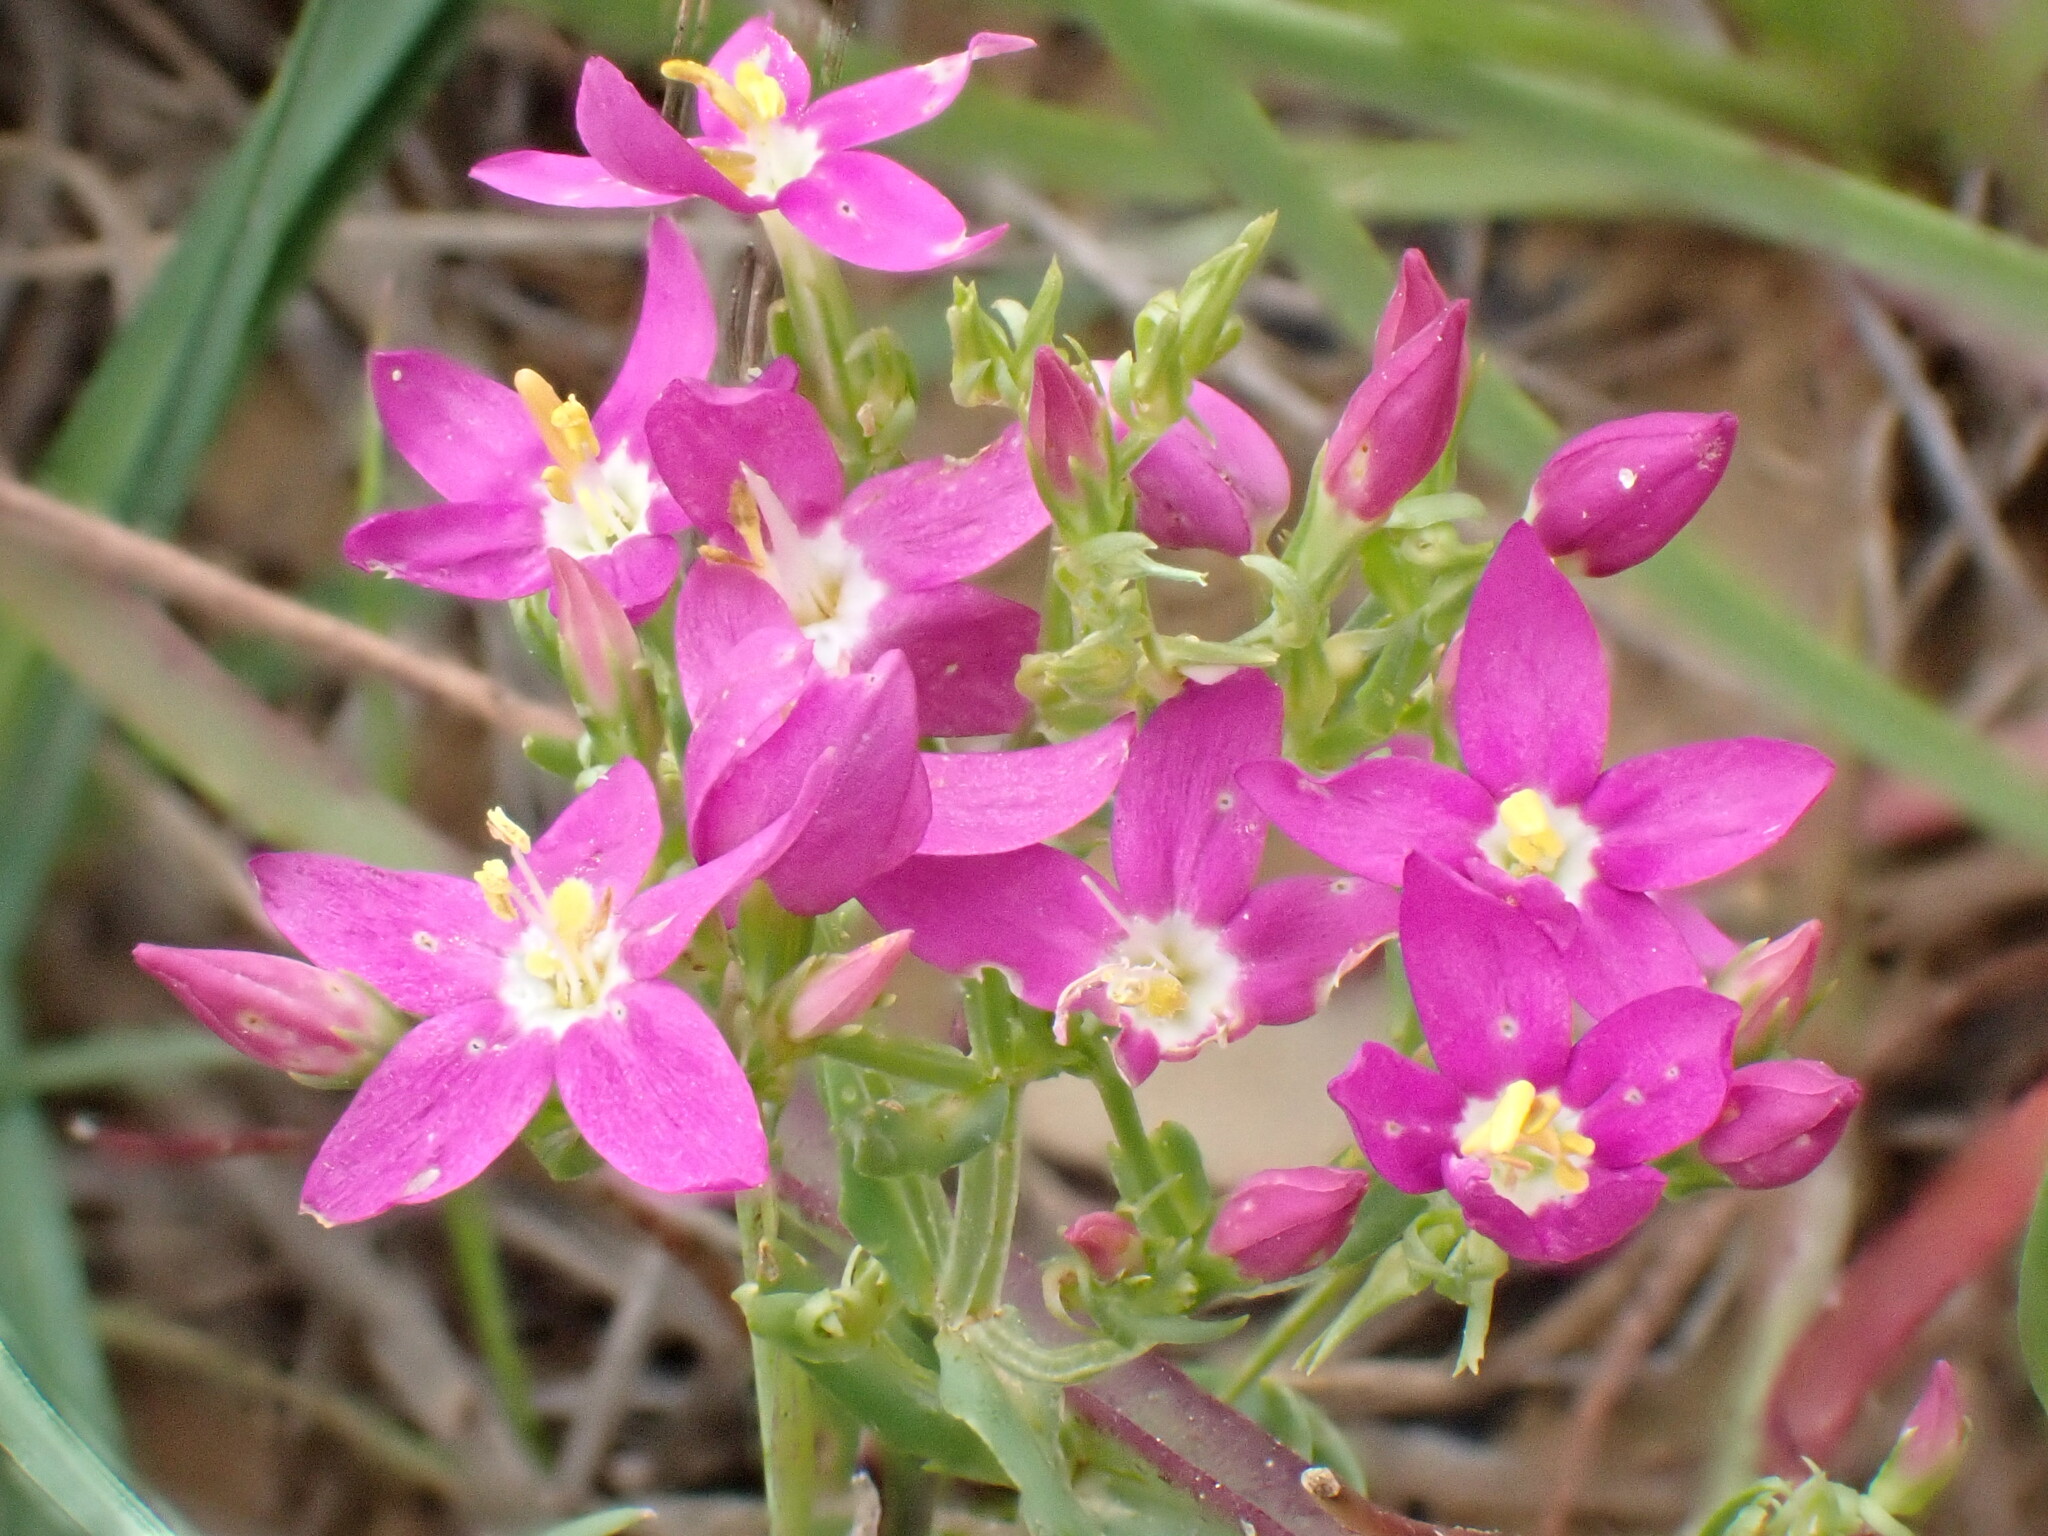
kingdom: Plantae
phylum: Tracheophyta
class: Magnoliopsida
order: Gentianales
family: Gentianaceae
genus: Centaurium
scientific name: Centaurium erythraea
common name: Common centaury
